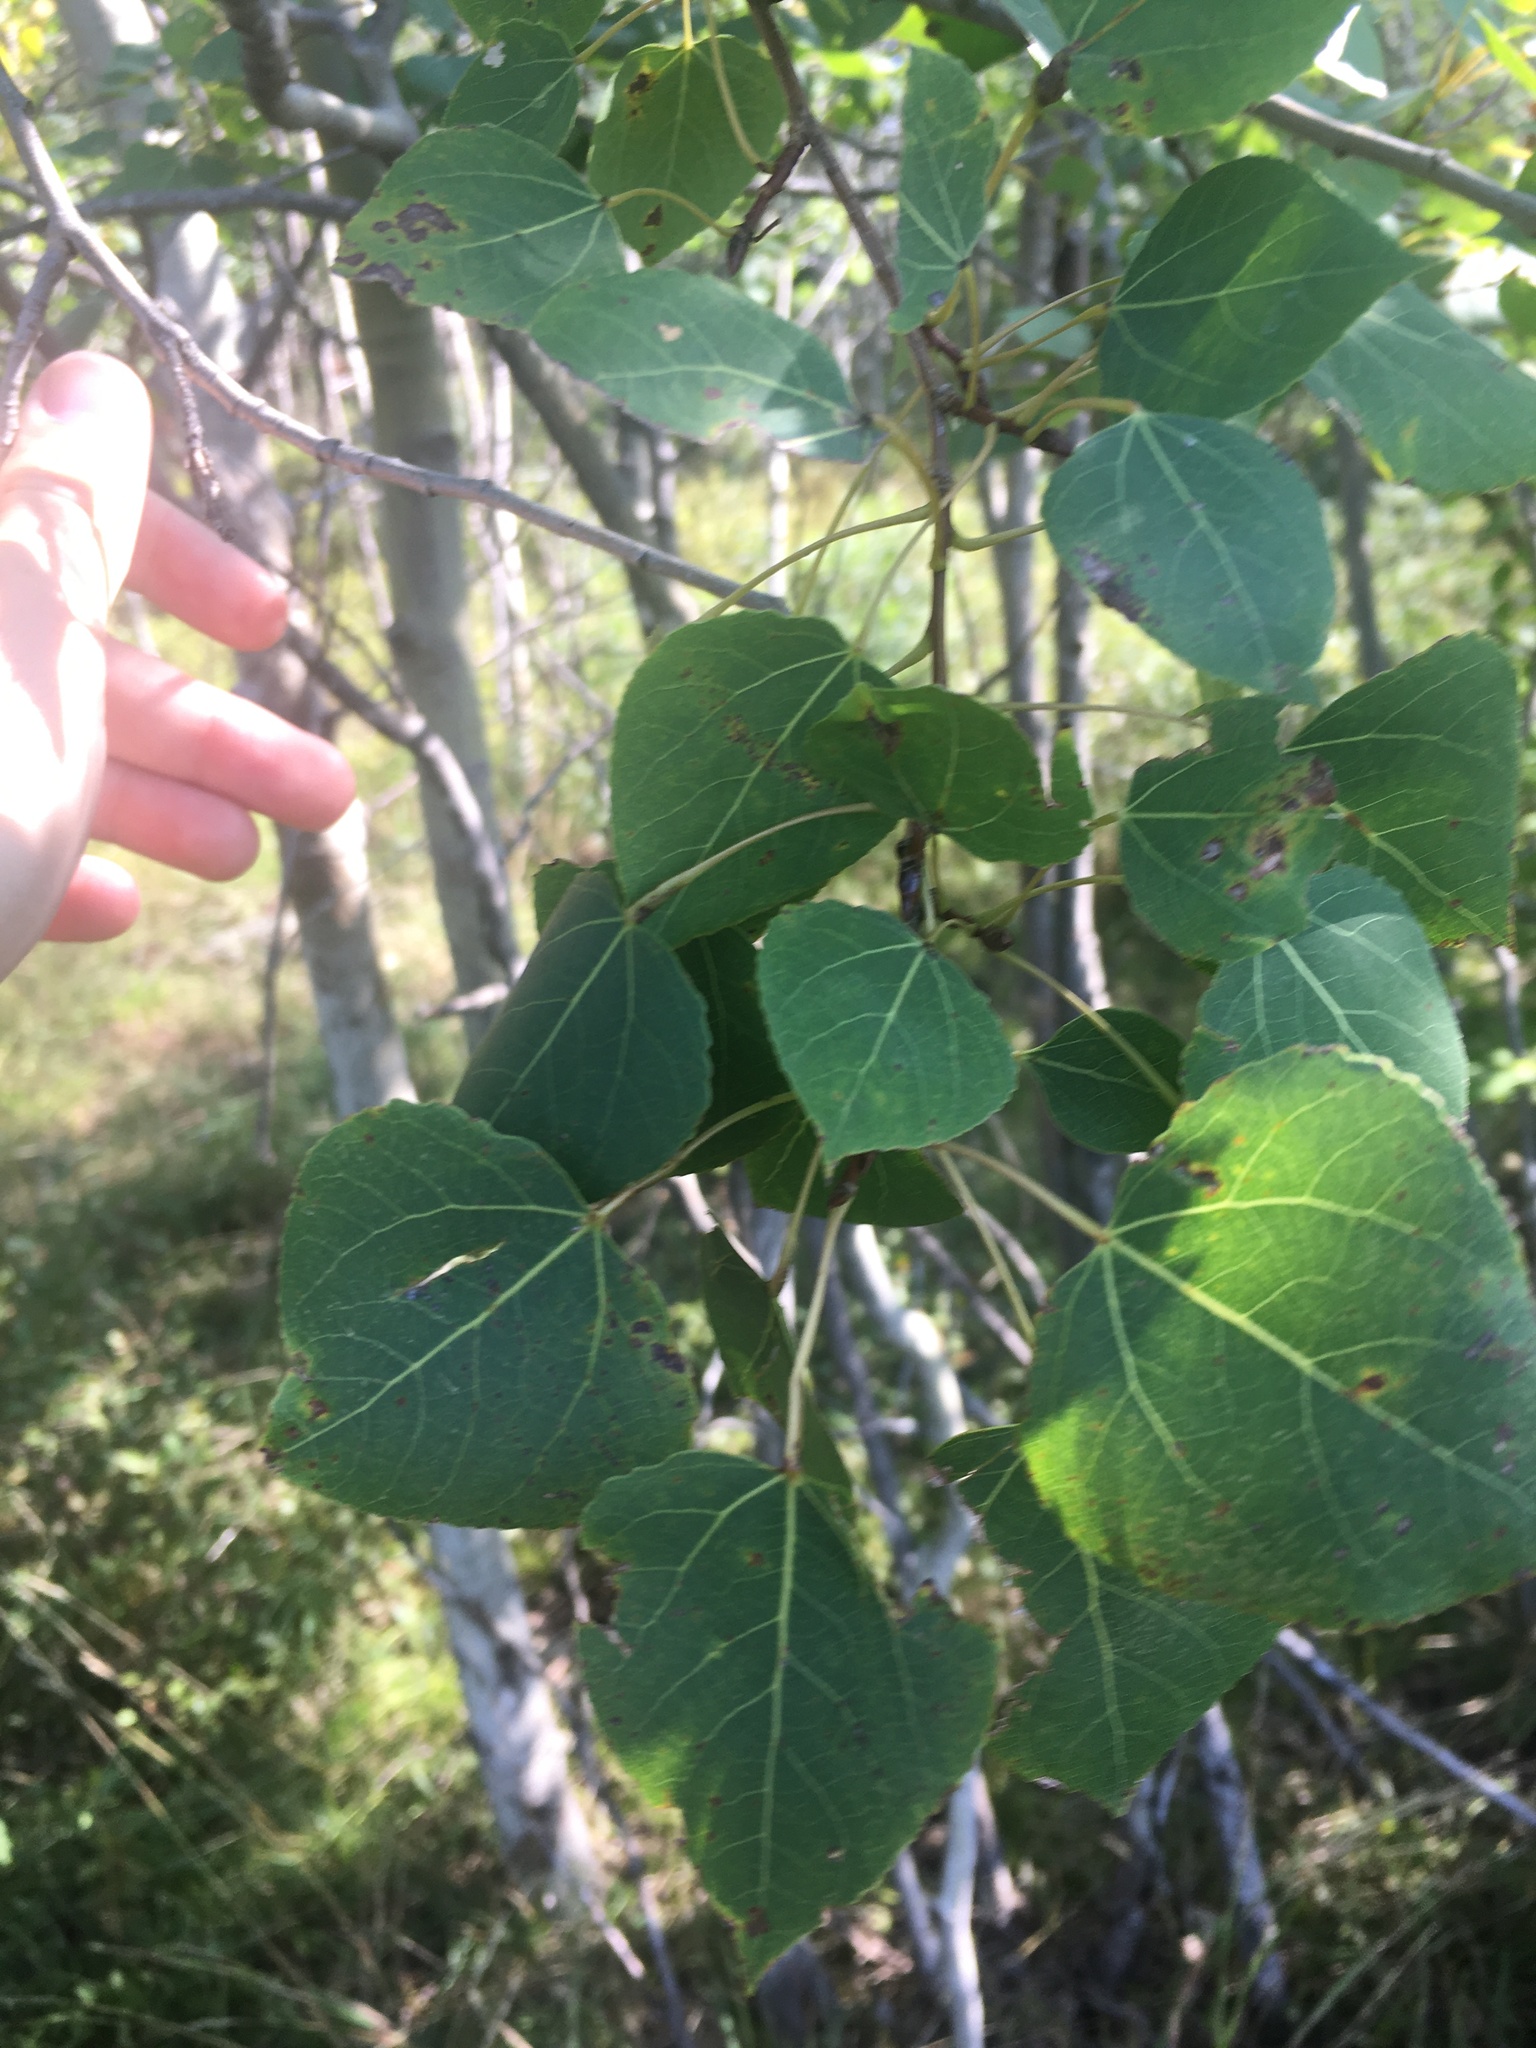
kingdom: Plantae
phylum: Tracheophyta
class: Magnoliopsida
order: Malpighiales
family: Salicaceae
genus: Populus
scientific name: Populus tremuloides
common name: Quaking aspen
